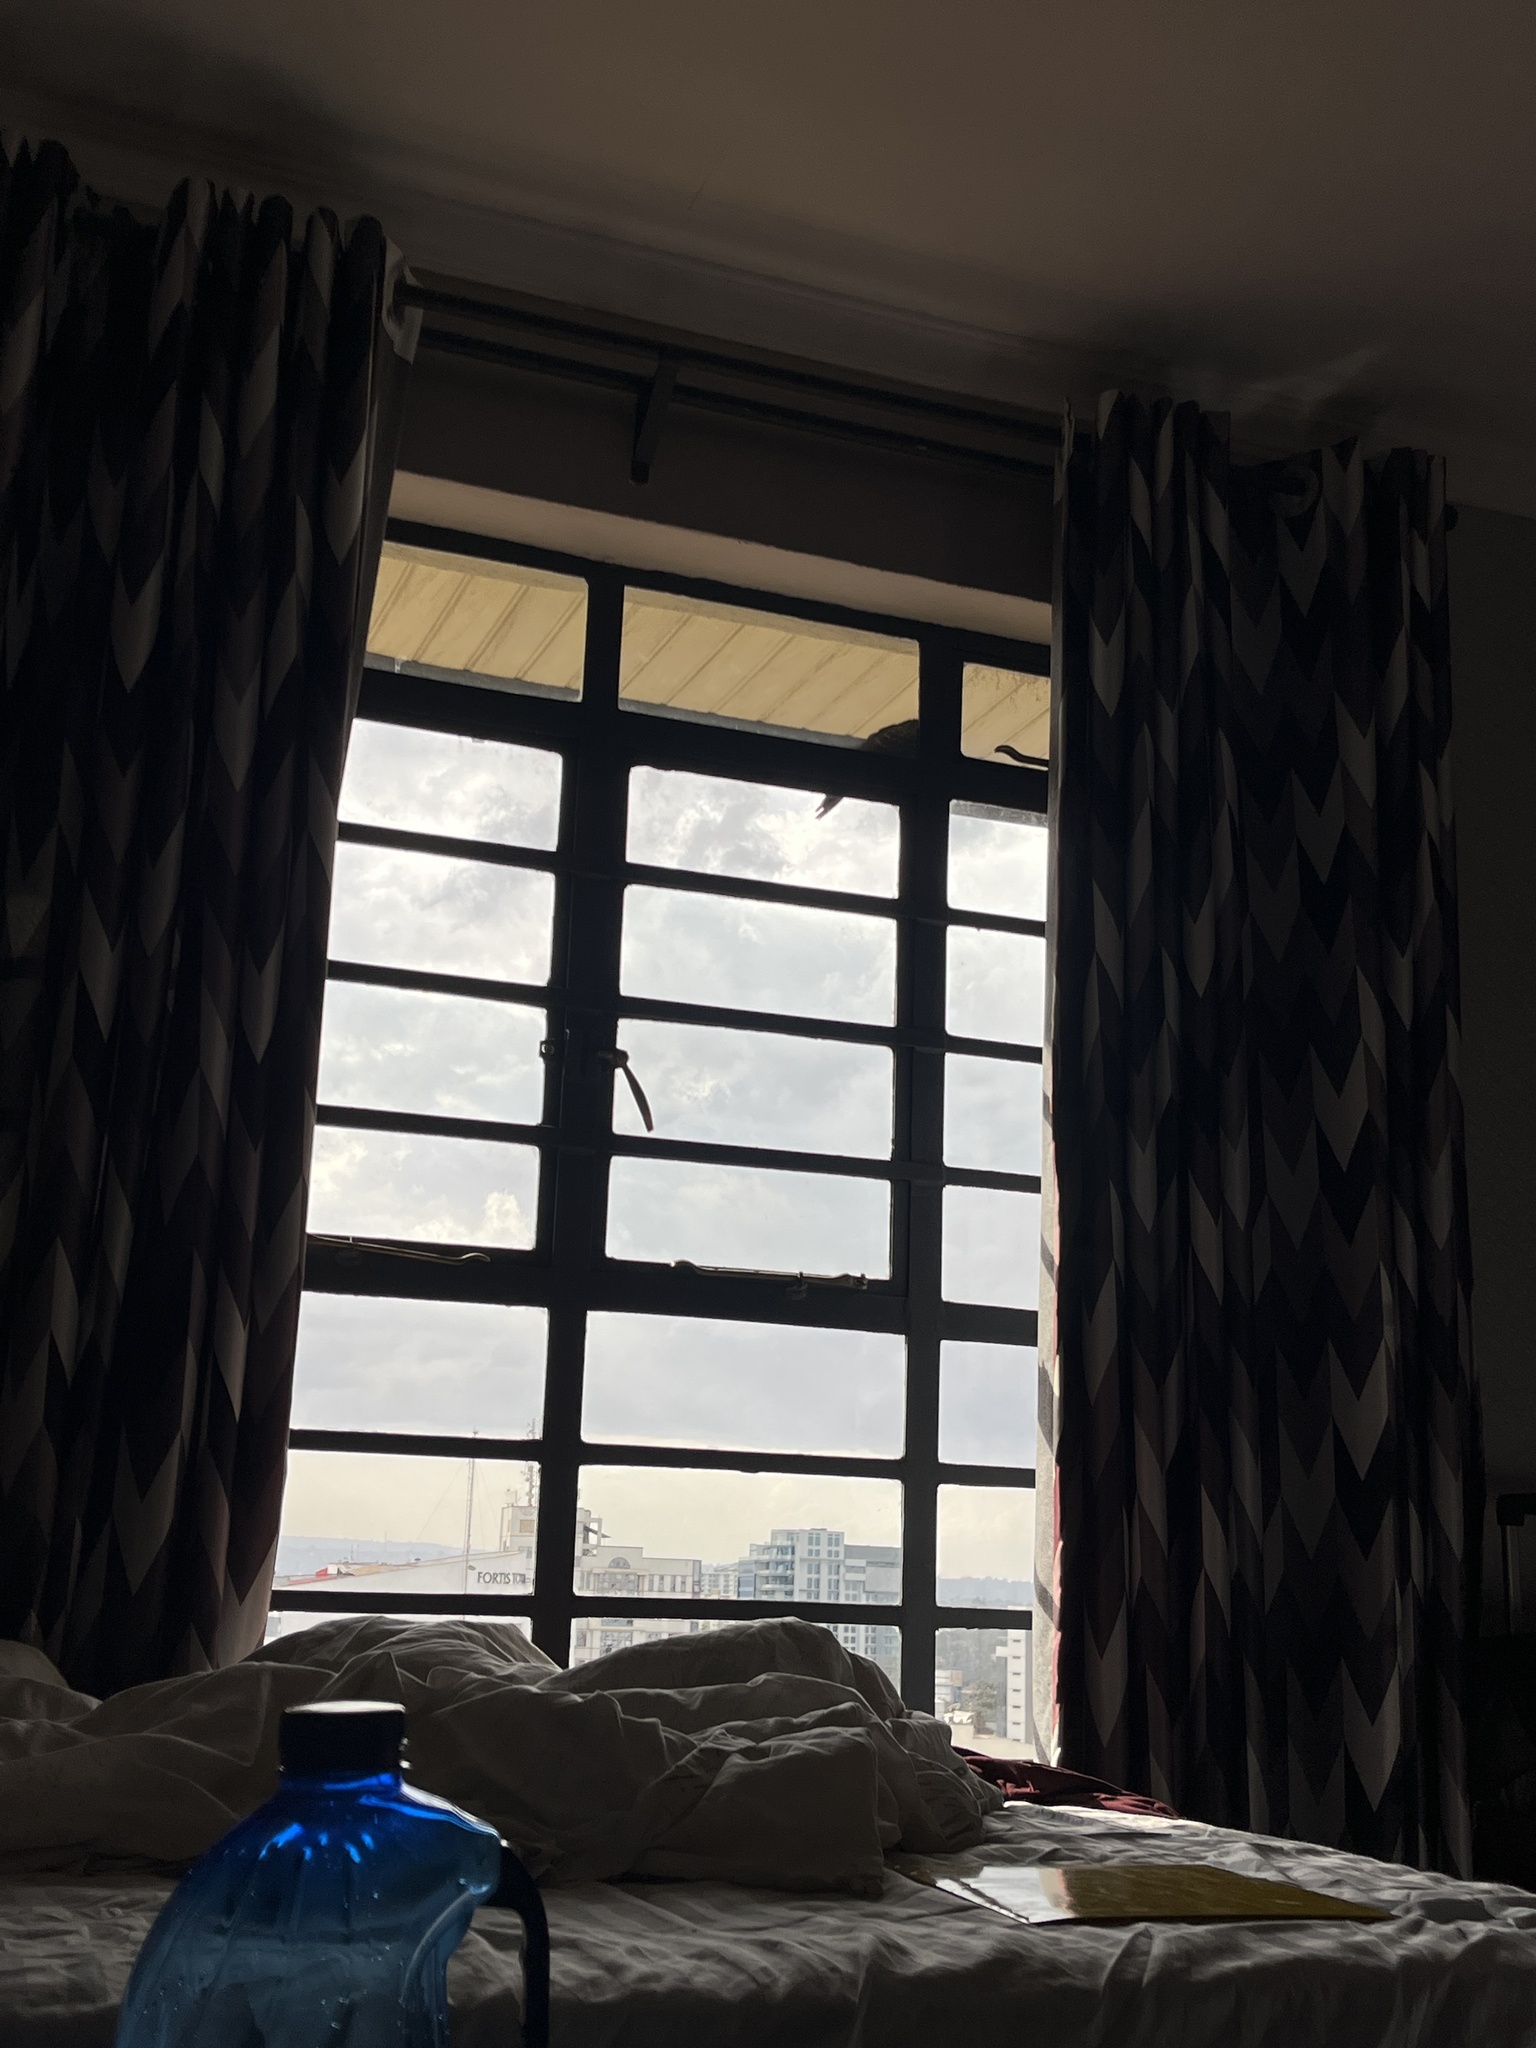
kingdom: Animalia
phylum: Chordata
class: Aves
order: Columbiformes
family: Columbidae
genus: Columba
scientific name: Columba guinea
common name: Speckled pigeon
